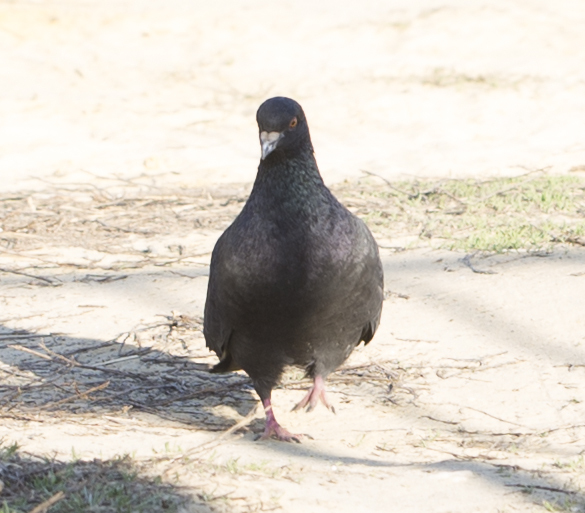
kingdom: Animalia
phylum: Chordata
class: Aves
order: Columbiformes
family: Columbidae
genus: Columba
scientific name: Columba livia
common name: Rock pigeon
